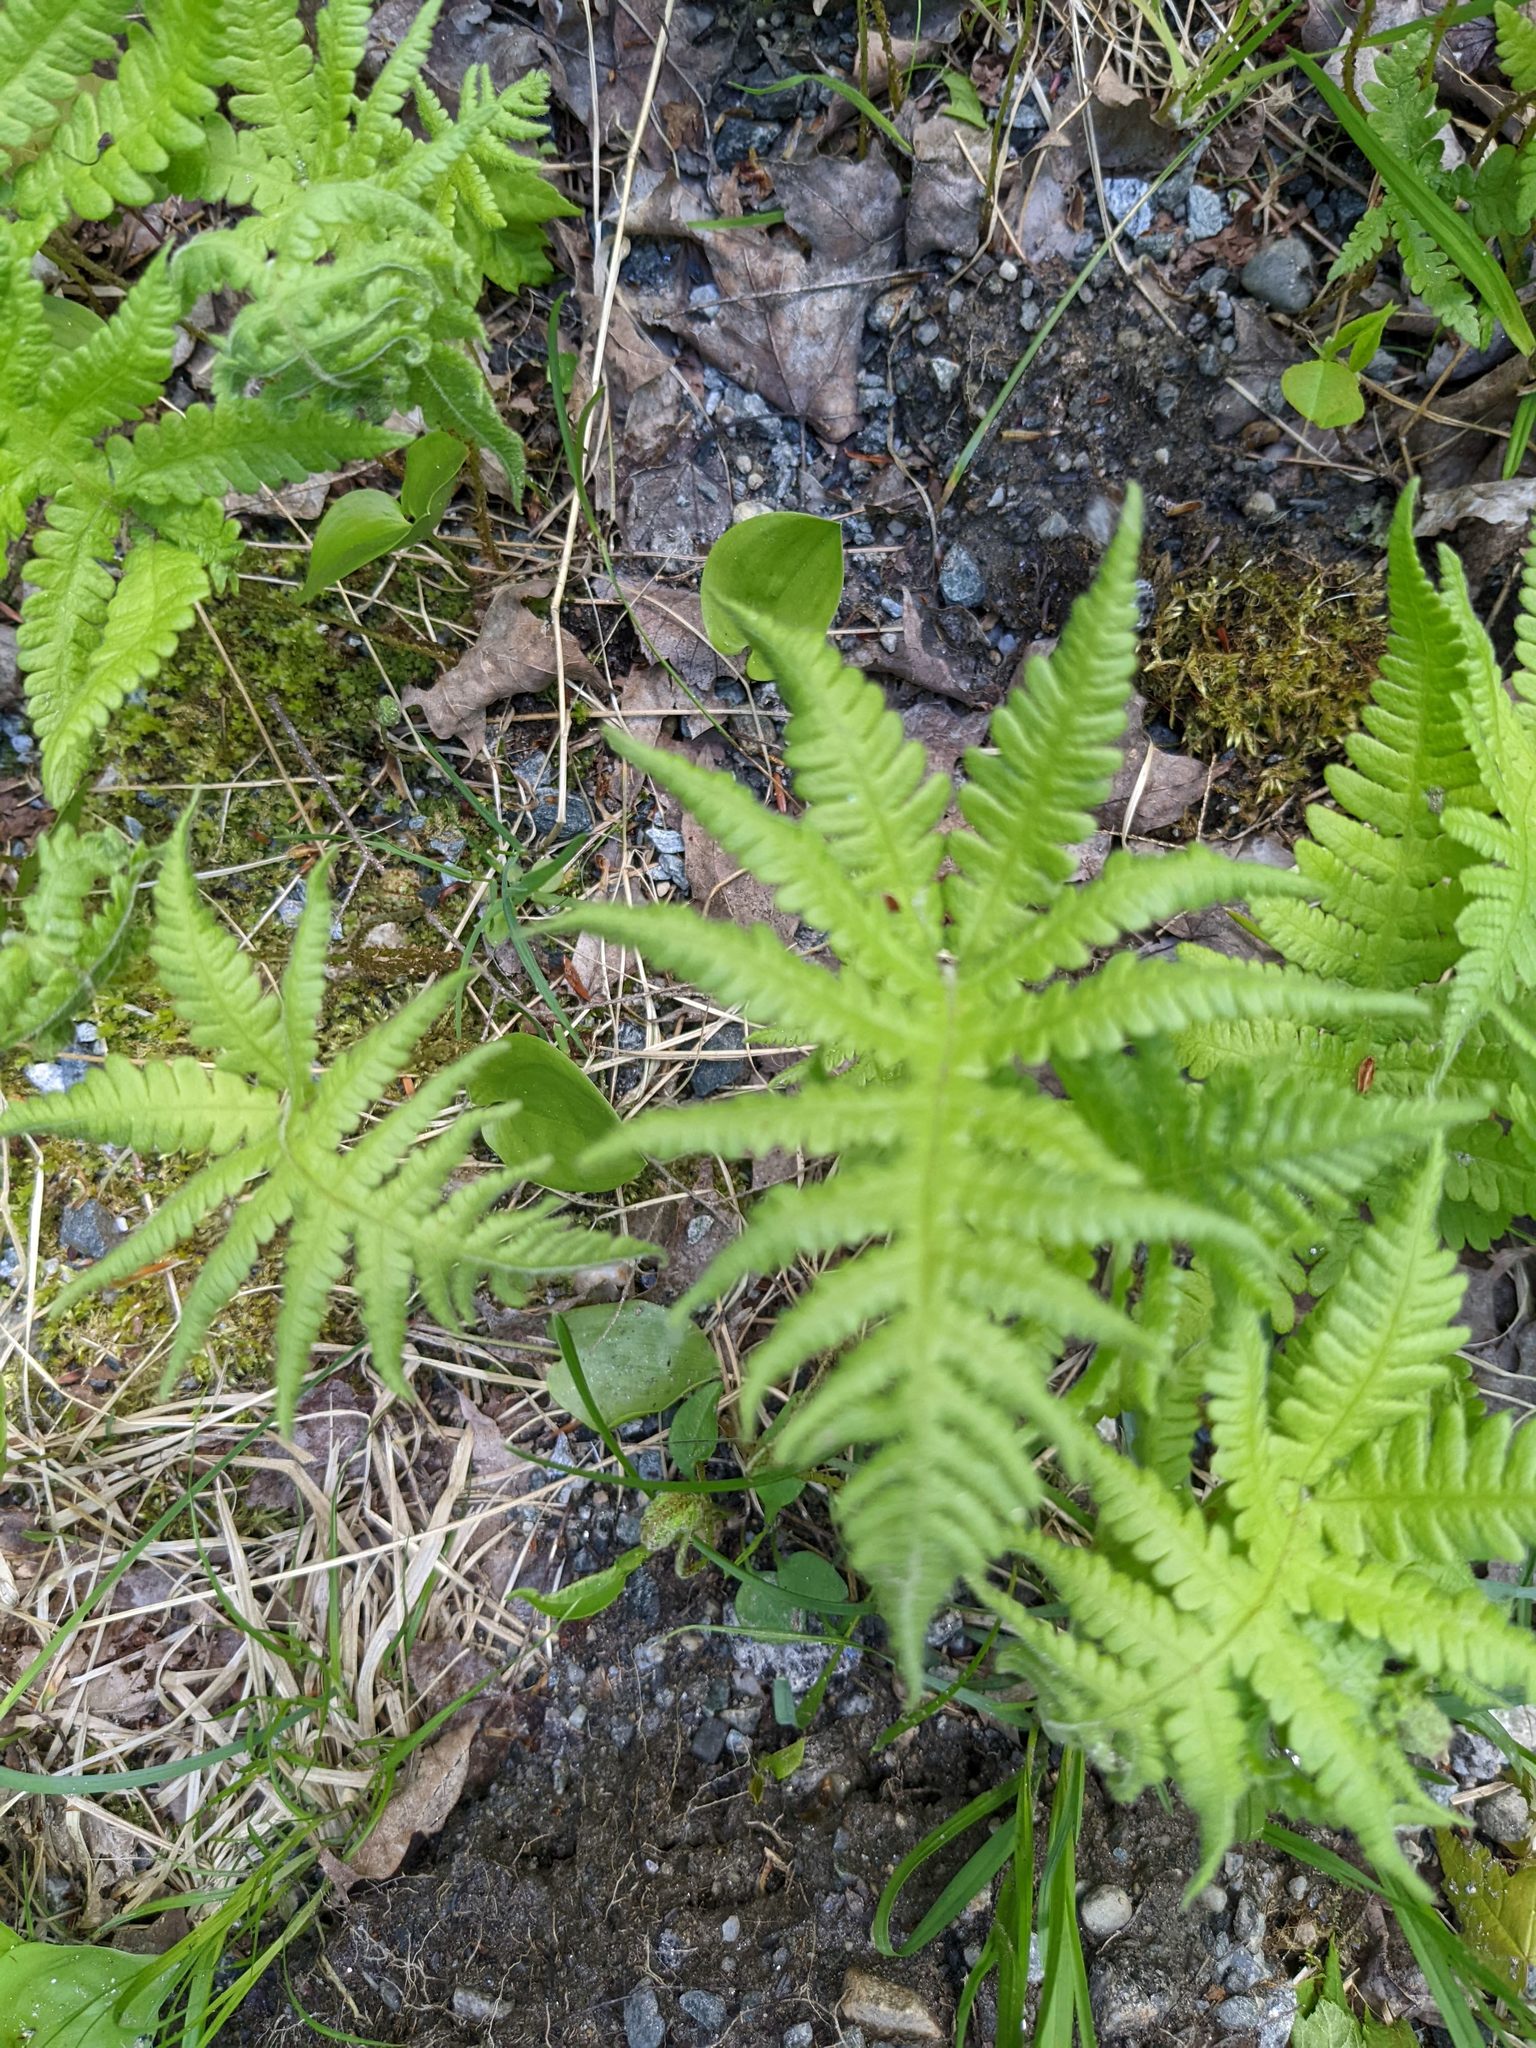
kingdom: Plantae
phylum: Tracheophyta
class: Polypodiopsida
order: Polypodiales
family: Thelypteridaceae
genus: Phegopteris
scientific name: Phegopteris connectilis
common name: Beech fern
